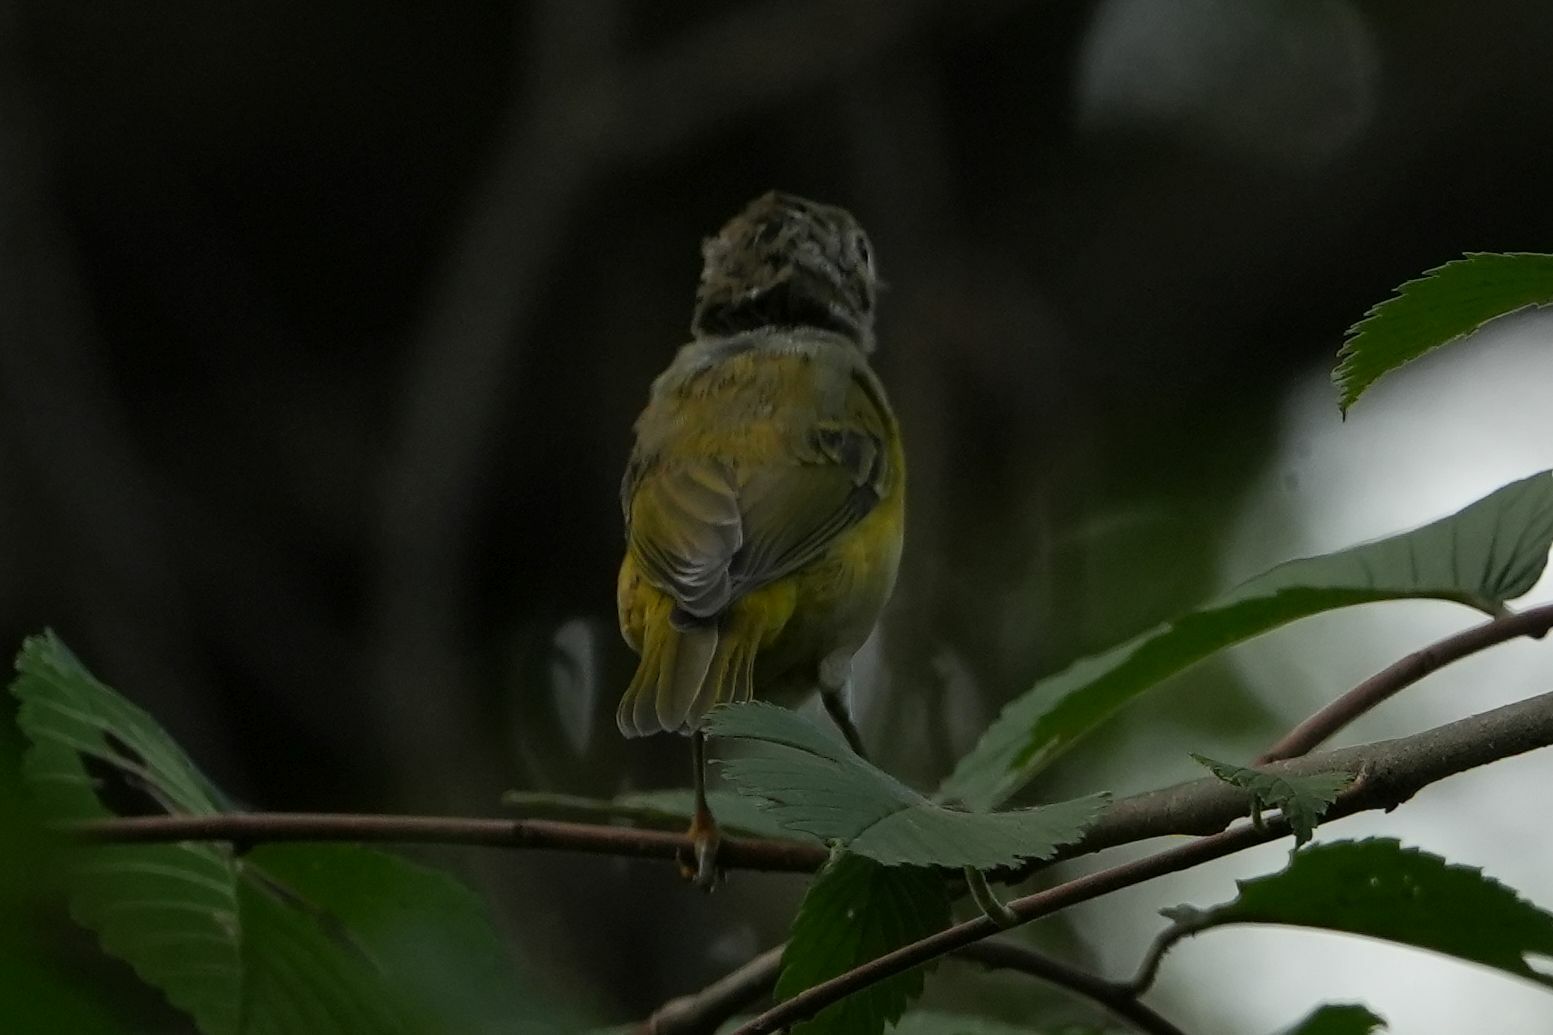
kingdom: Animalia
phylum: Chordata
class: Aves
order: Passeriformes
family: Parulidae
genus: Leiothlypis
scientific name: Leiothlypis ruficapilla
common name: Nashville warbler
